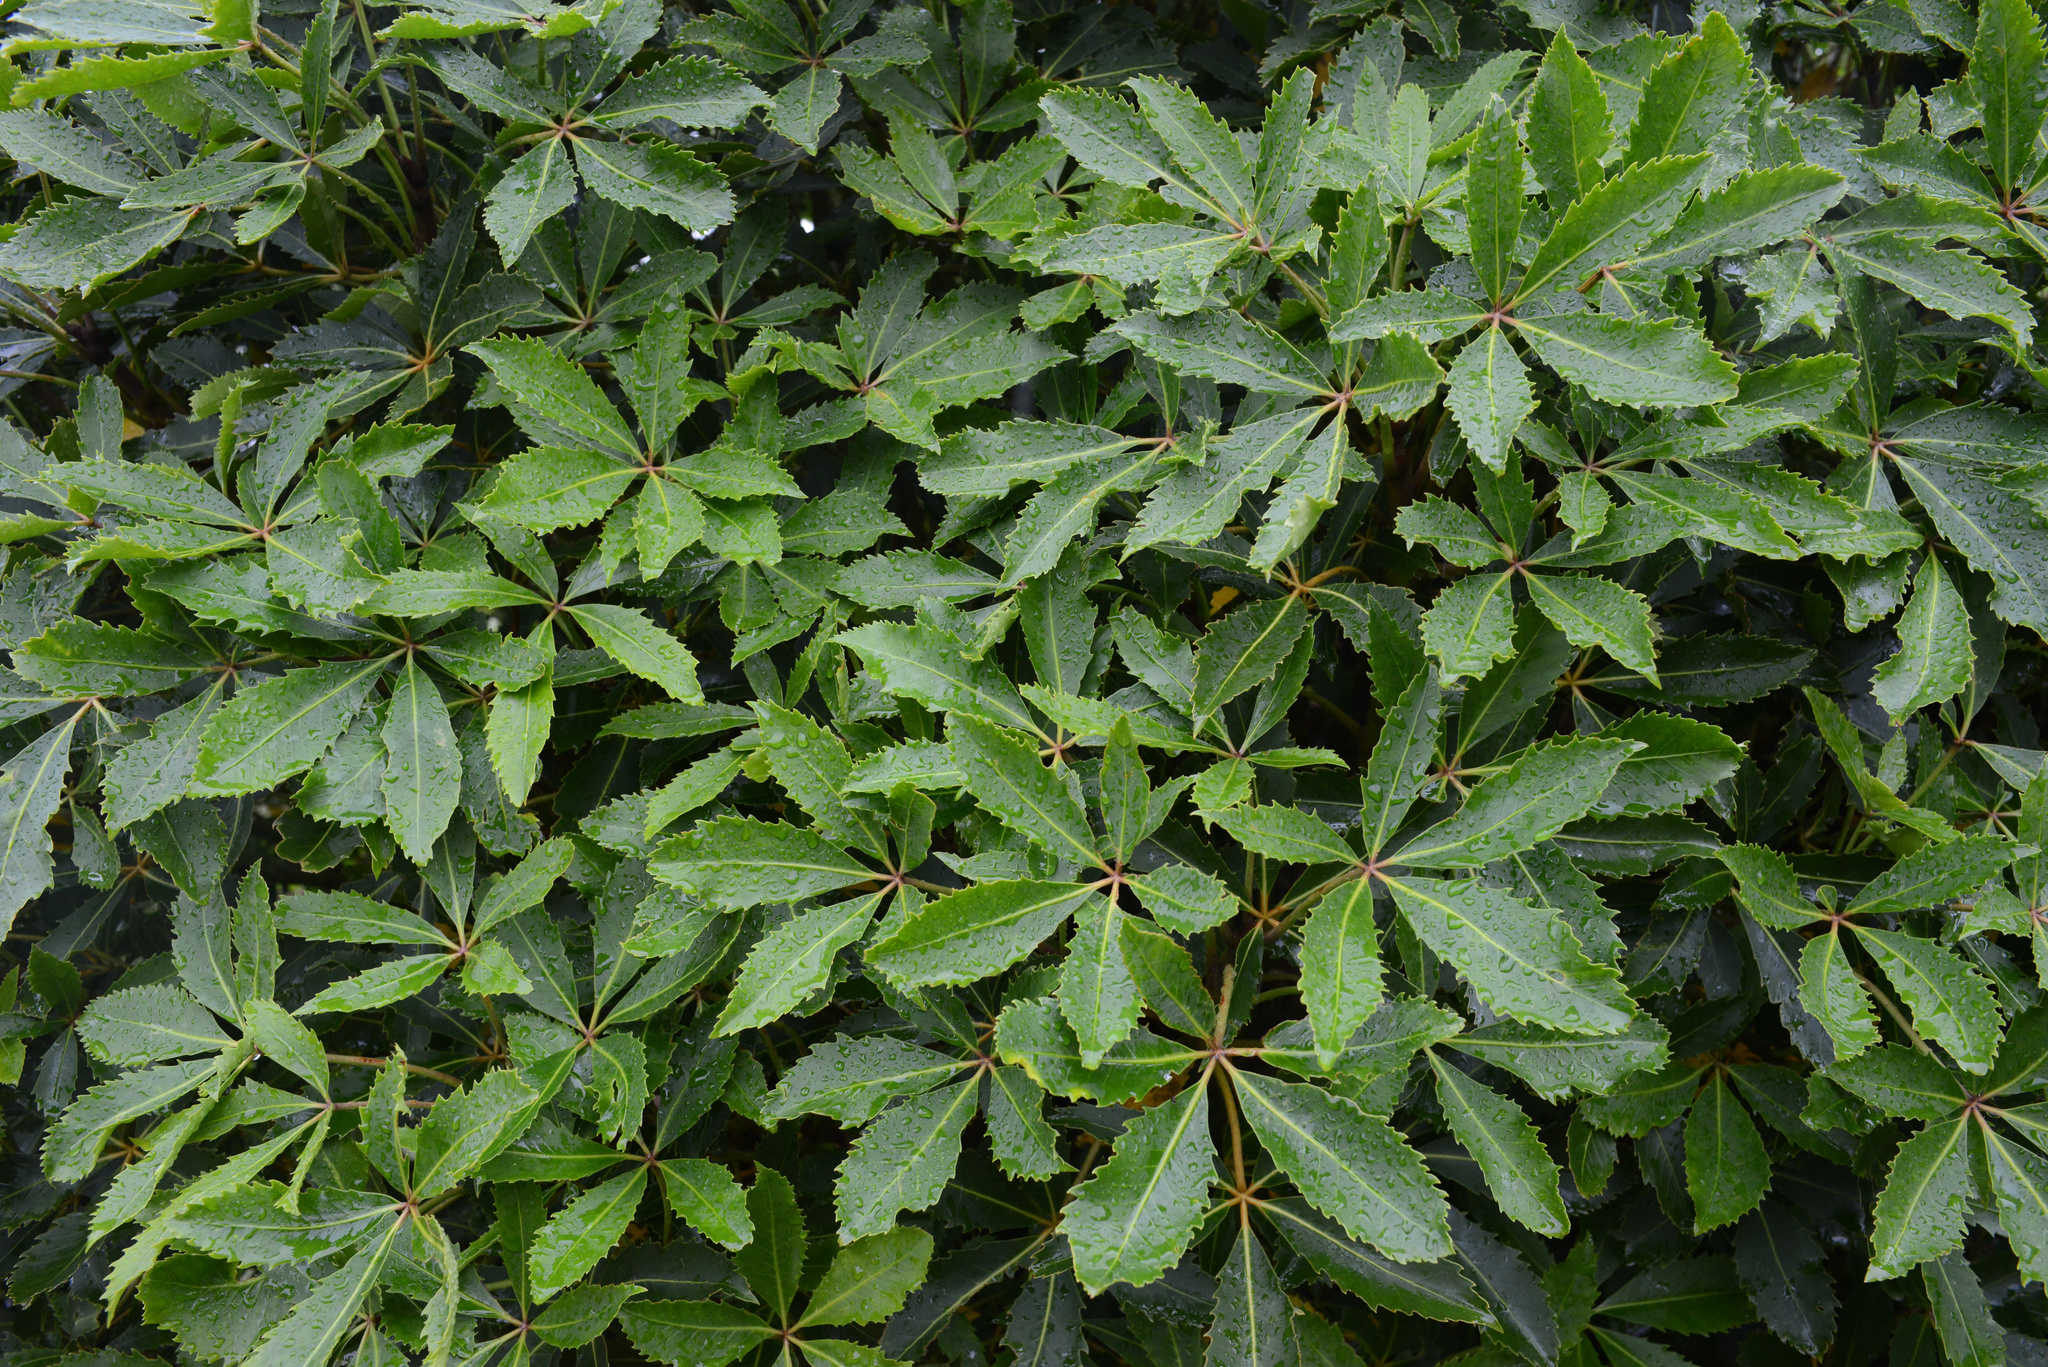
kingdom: Plantae
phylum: Tracheophyta
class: Magnoliopsida
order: Apiales
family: Araliaceae
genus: Neopanax
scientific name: Neopanax colensoi
